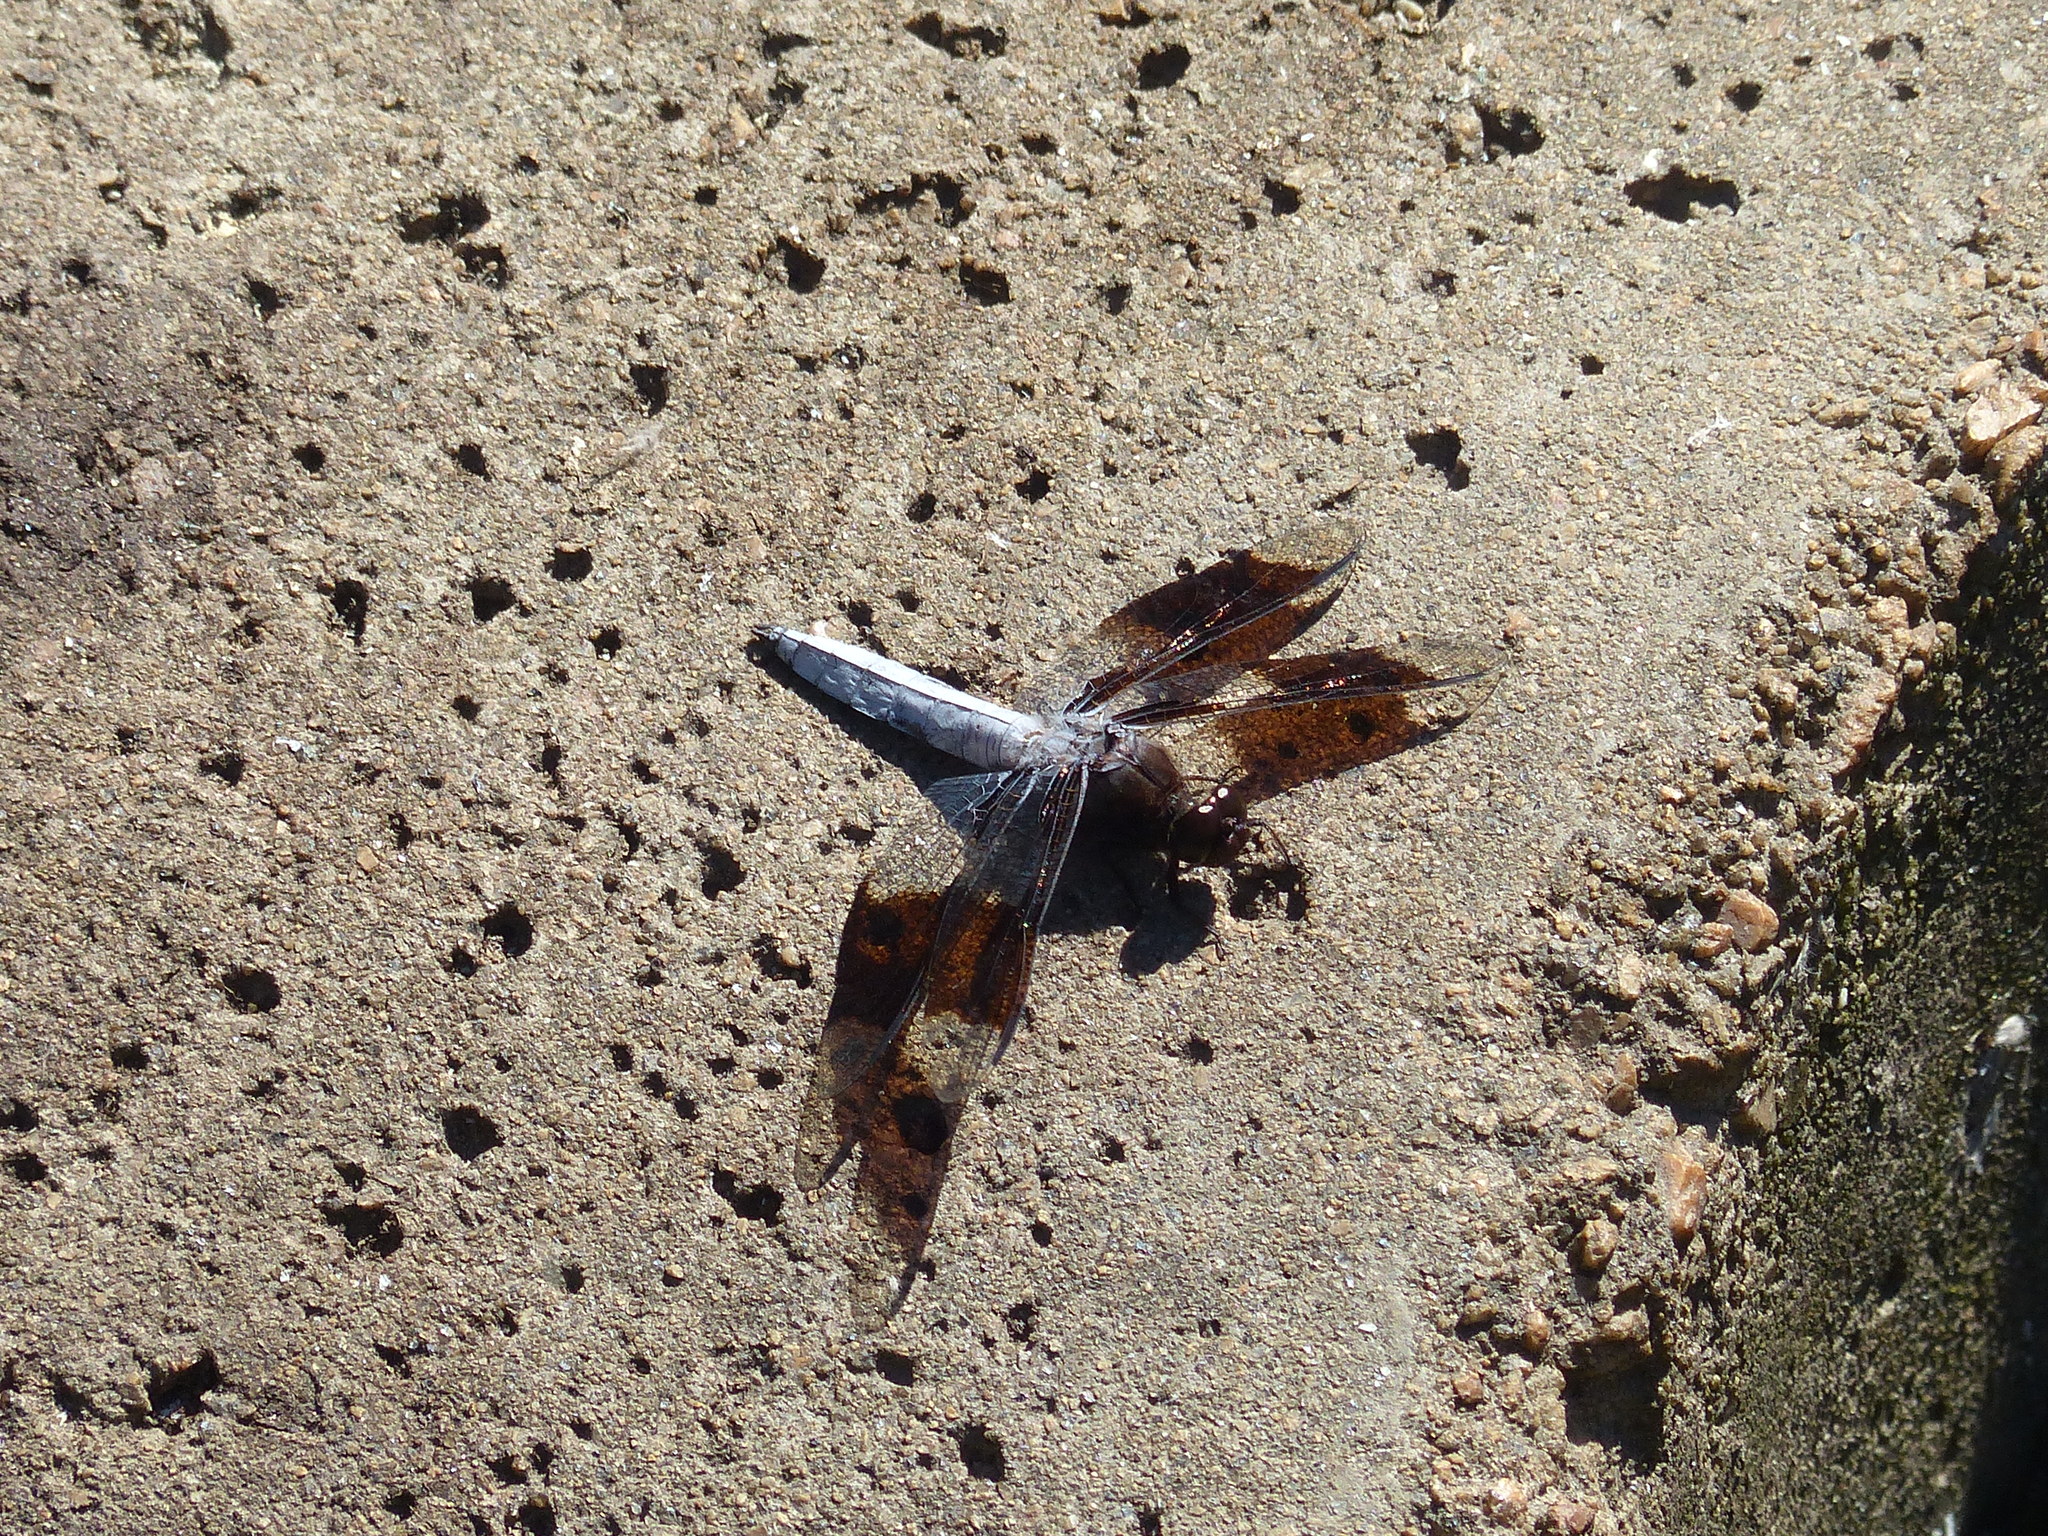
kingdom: Animalia
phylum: Arthropoda
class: Insecta
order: Odonata
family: Libellulidae
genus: Plathemis
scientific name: Plathemis lydia
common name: Common whitetail
